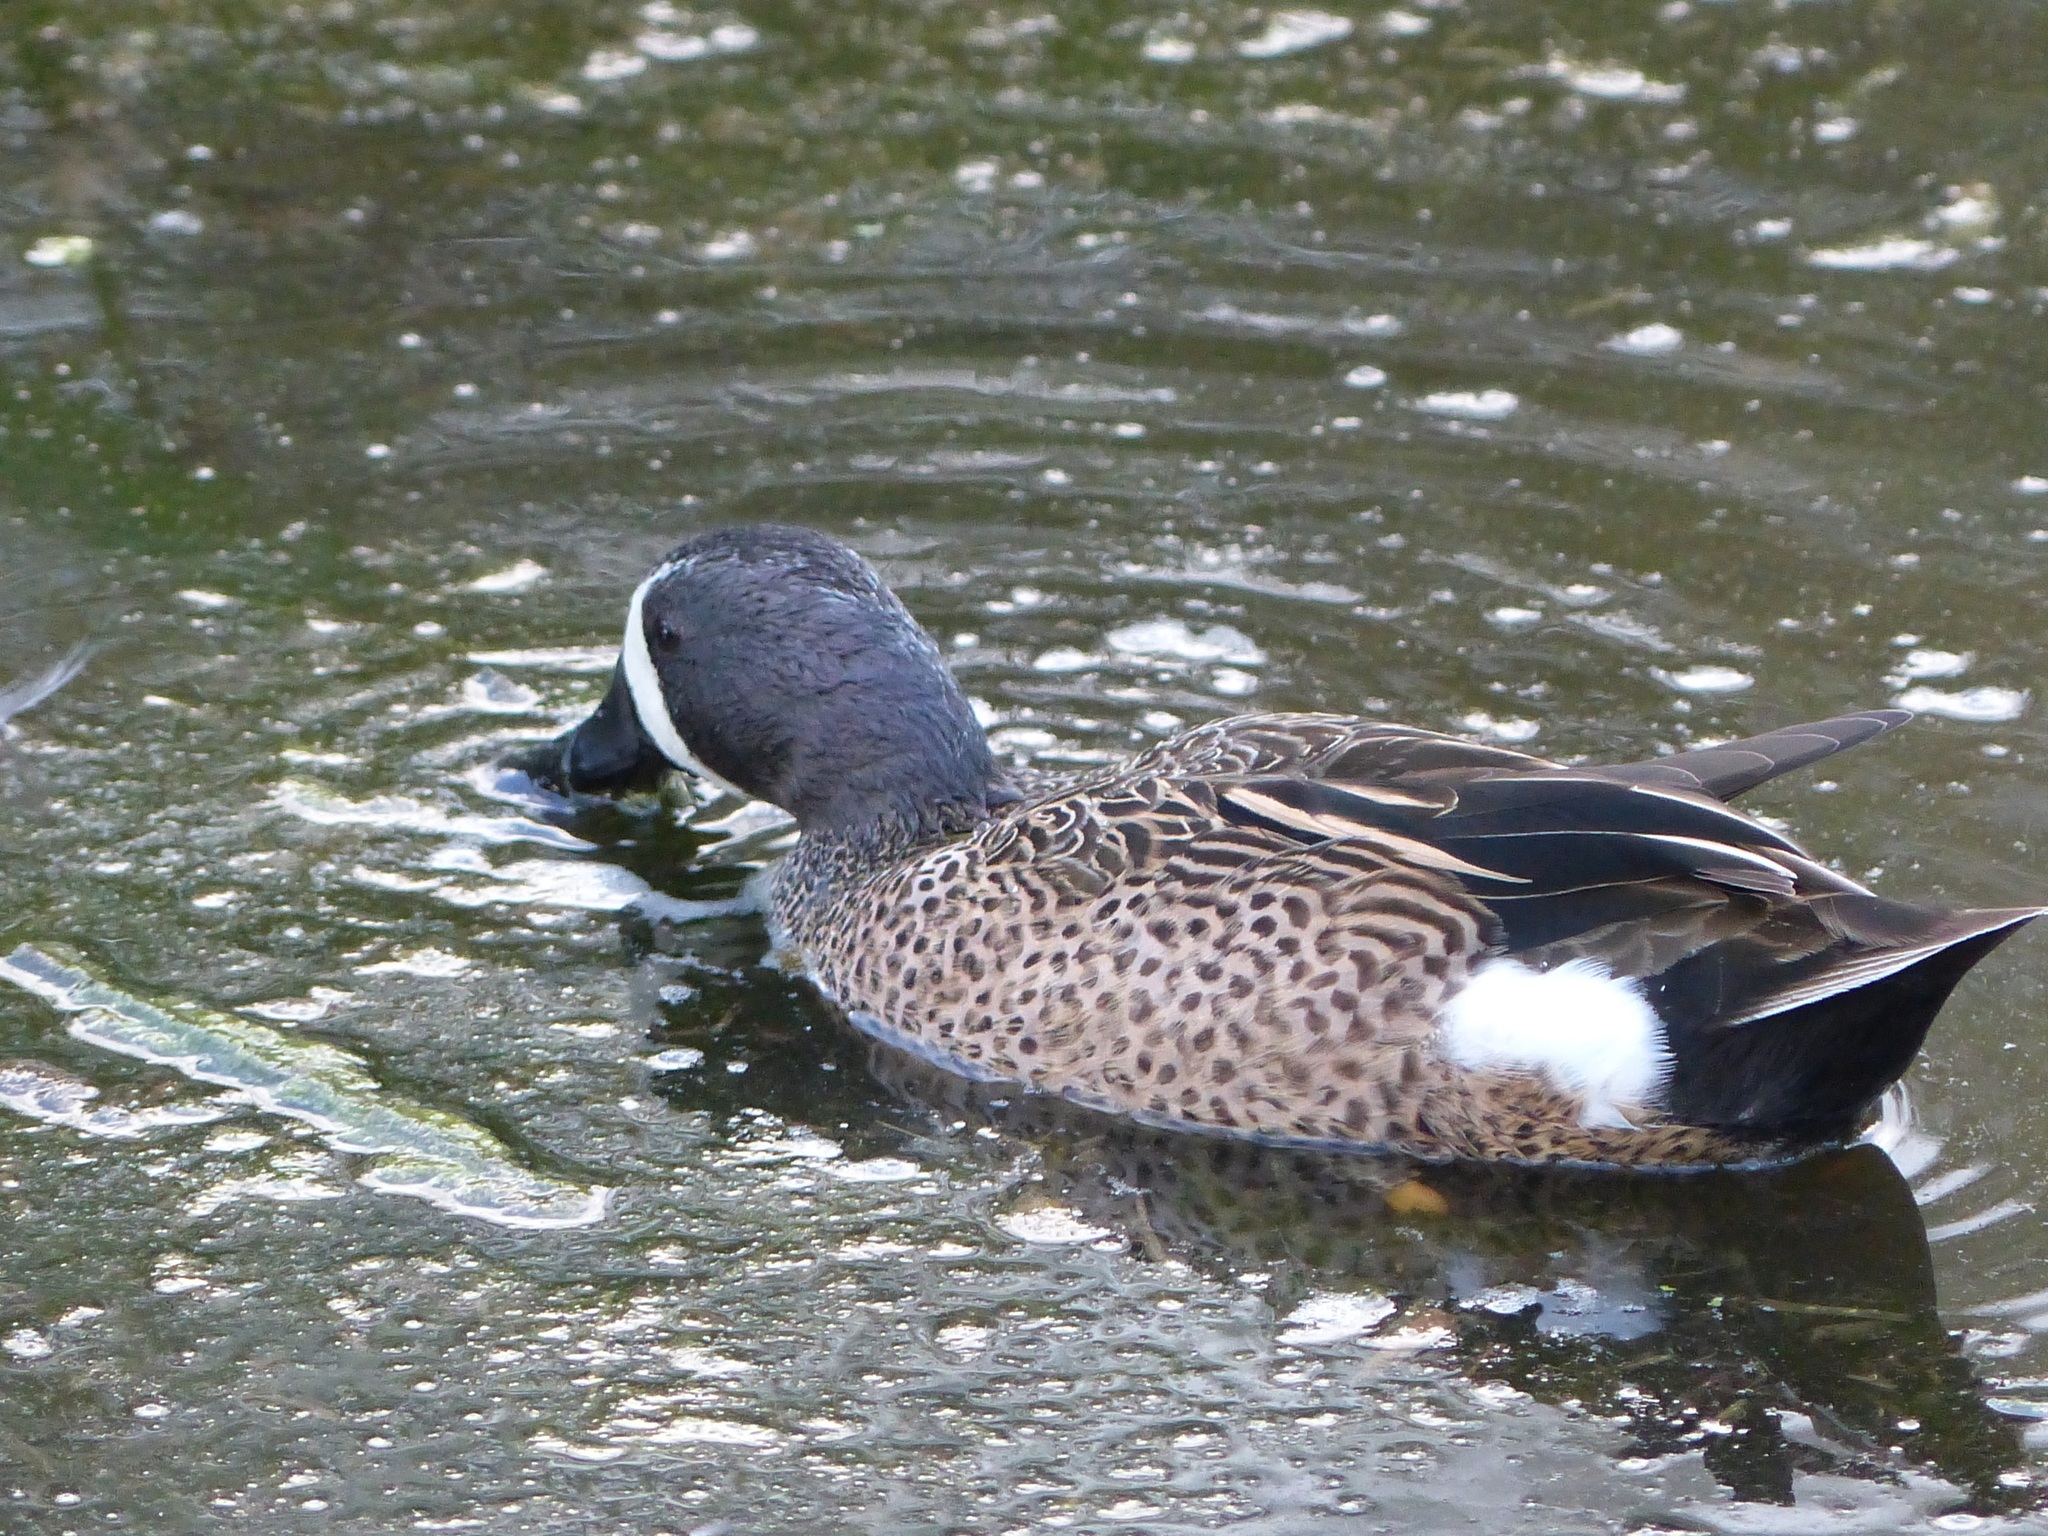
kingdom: Animalia
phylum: Chordata
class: Aves
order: Anseriformes
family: Anatidae
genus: Spatula
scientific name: Spatula discors
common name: Blue-winged teal
